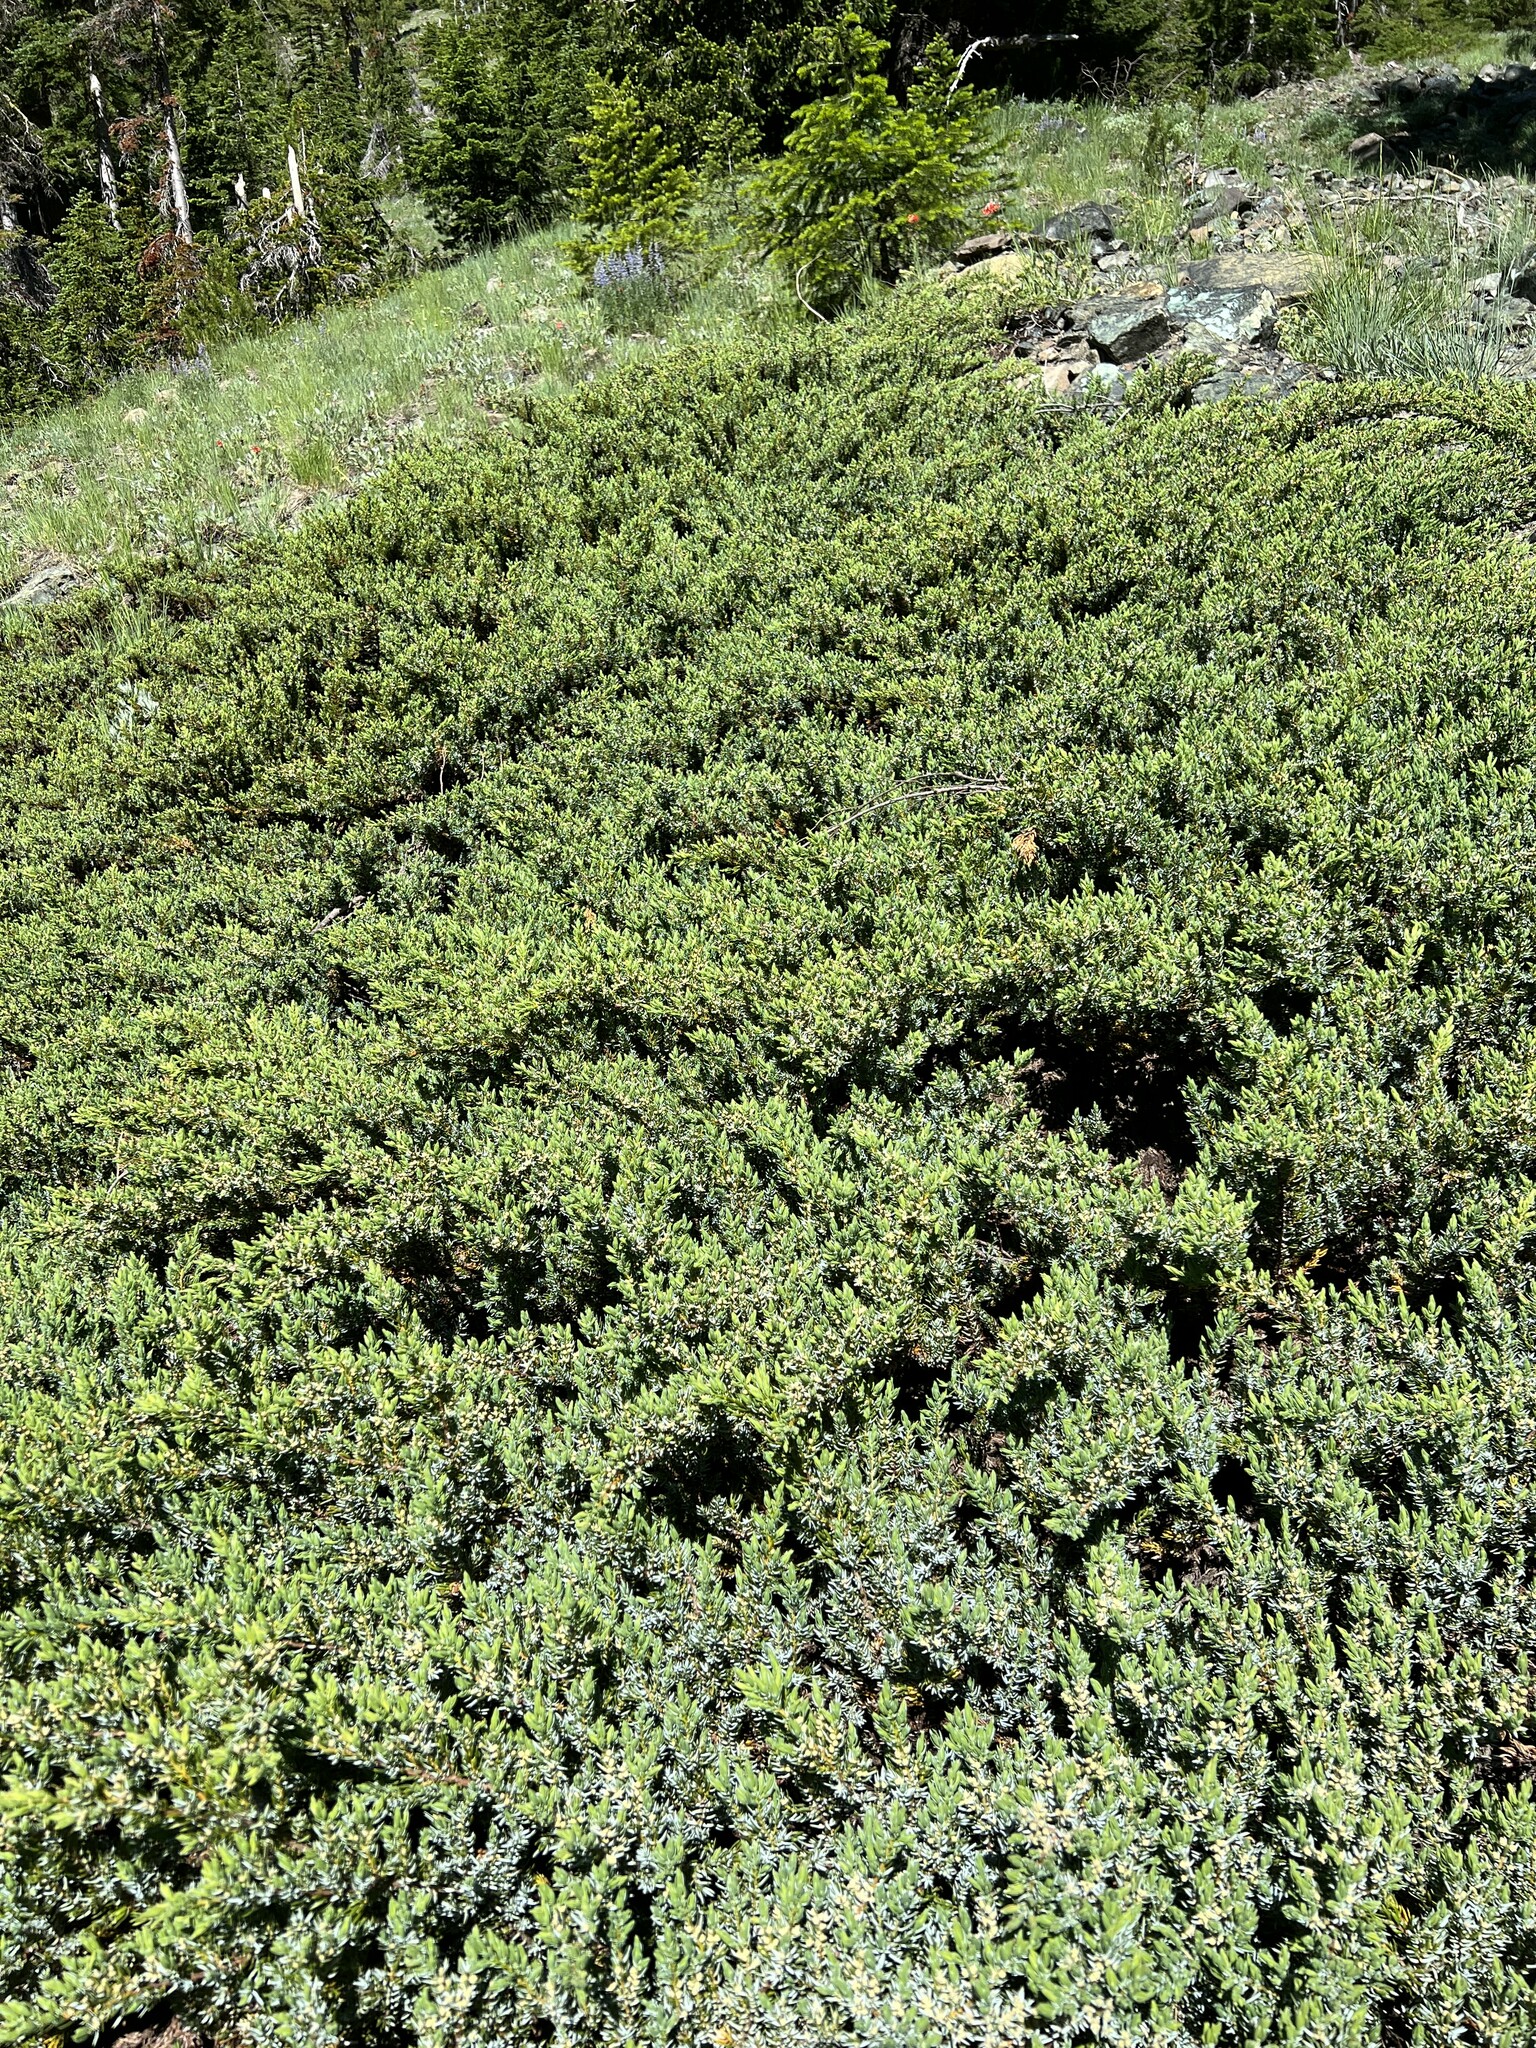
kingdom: Plantae
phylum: Tracheophyta
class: Pinopsida
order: Pinales
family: Cupressaceae
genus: Juniperus
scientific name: Juniperus communis
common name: Common juniper
